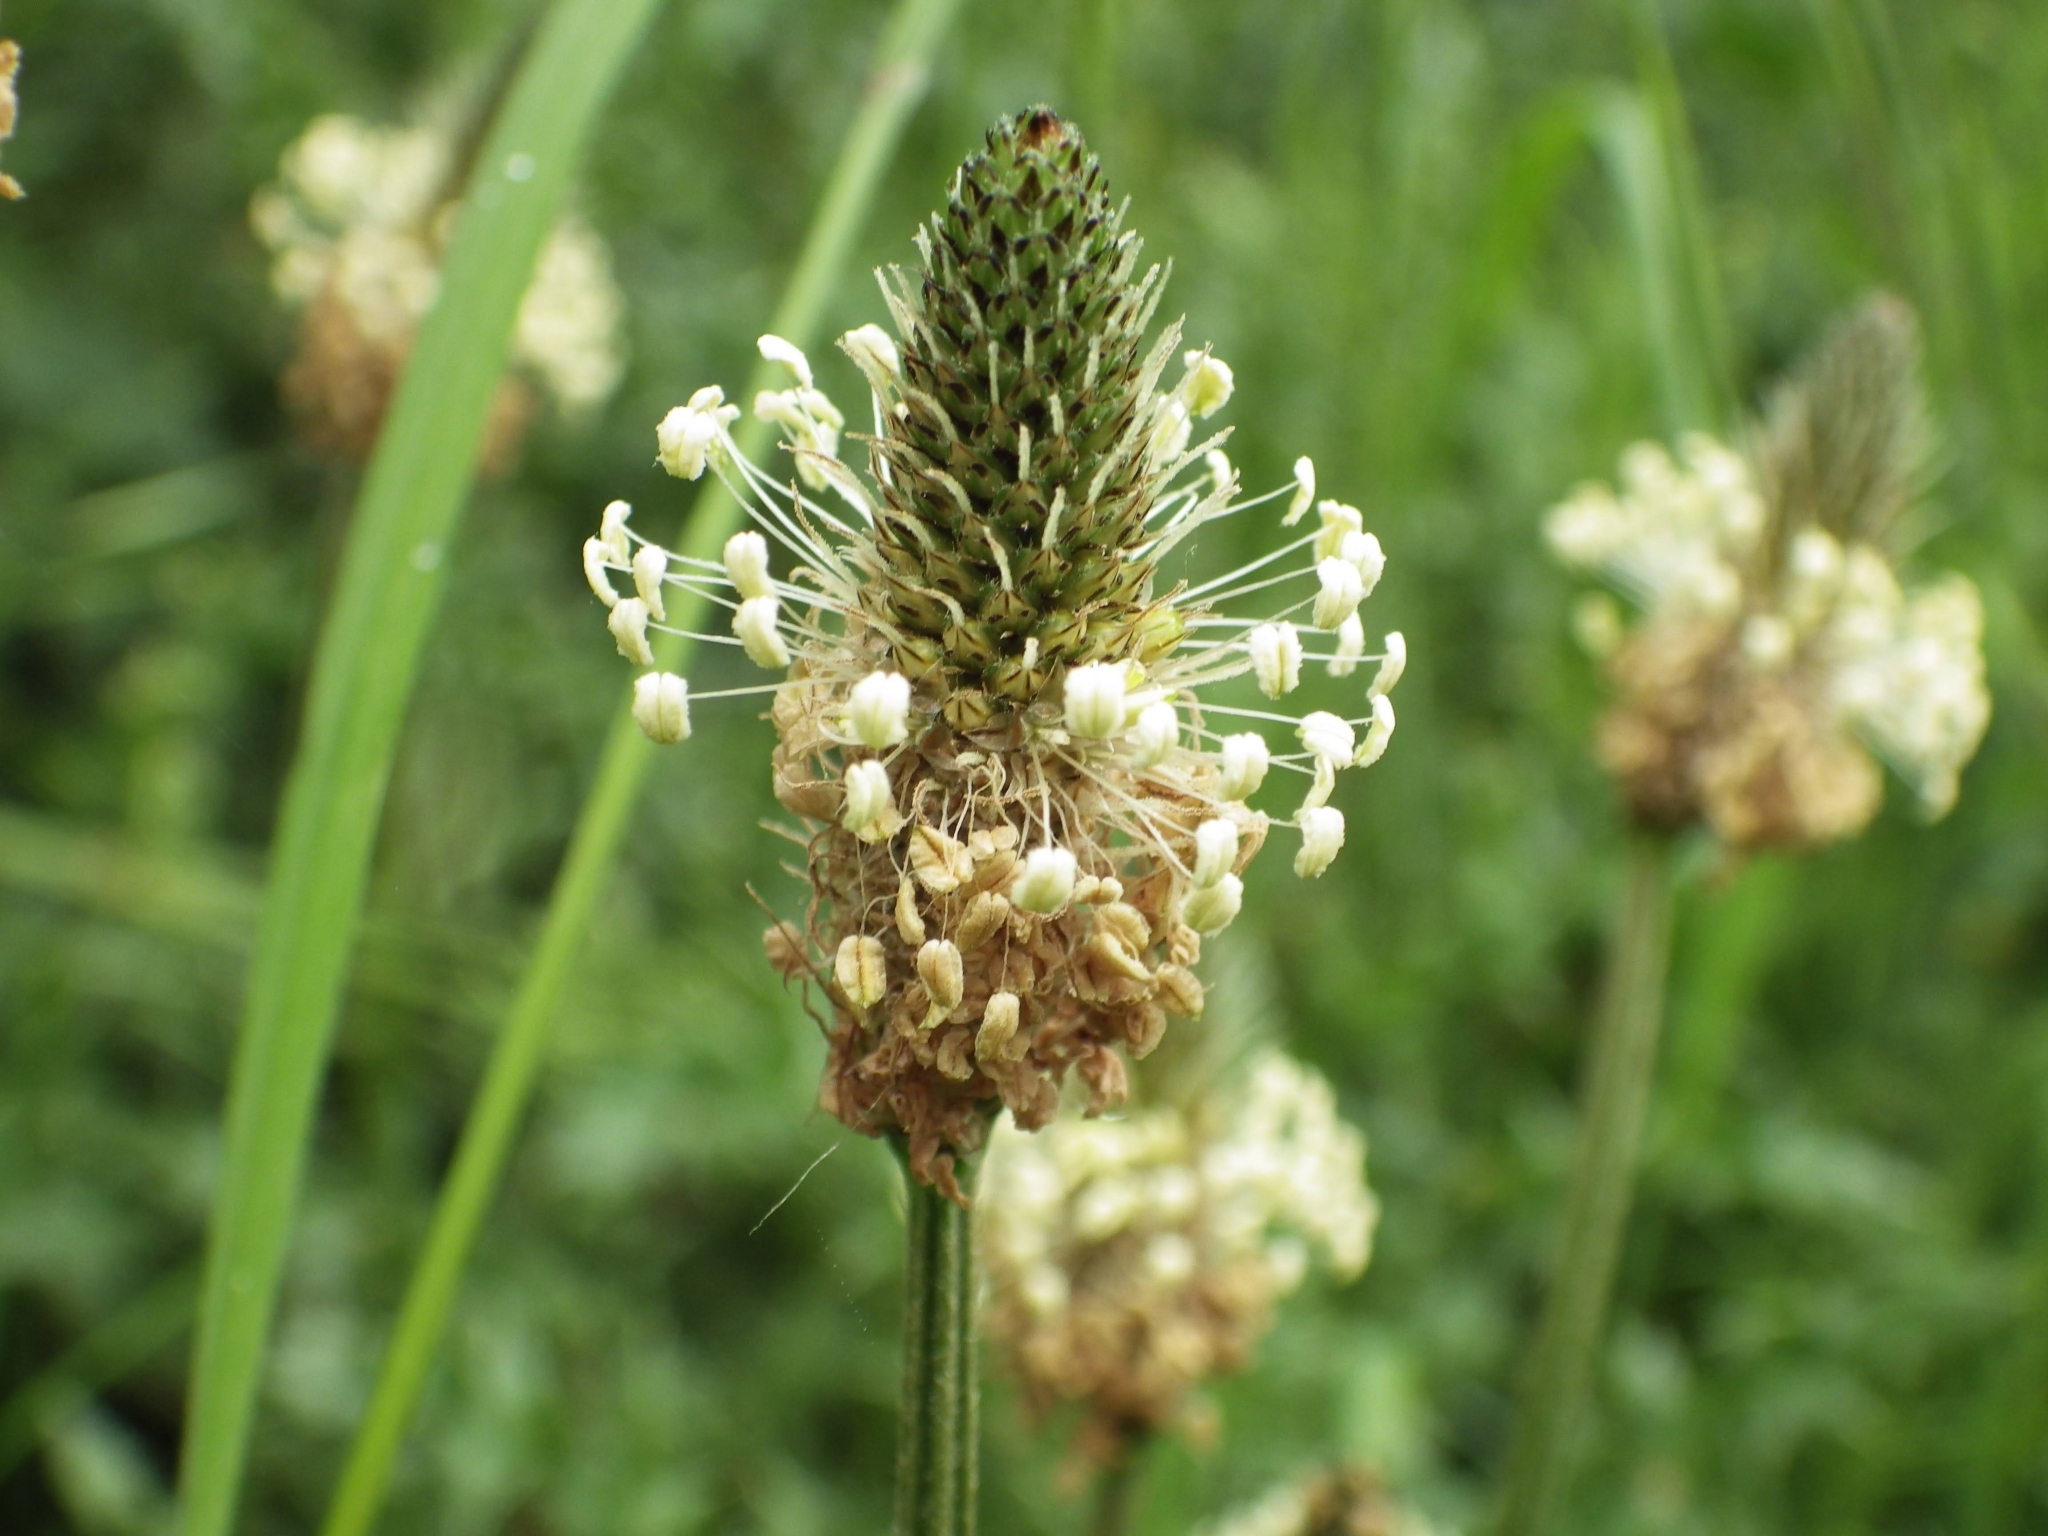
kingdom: Plantae
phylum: Tracheophyta
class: Magnoliopsida
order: Lamiales
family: Plantaginaceae
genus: Plantago
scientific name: Plantago lanceolata
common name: Ribwort plantain
